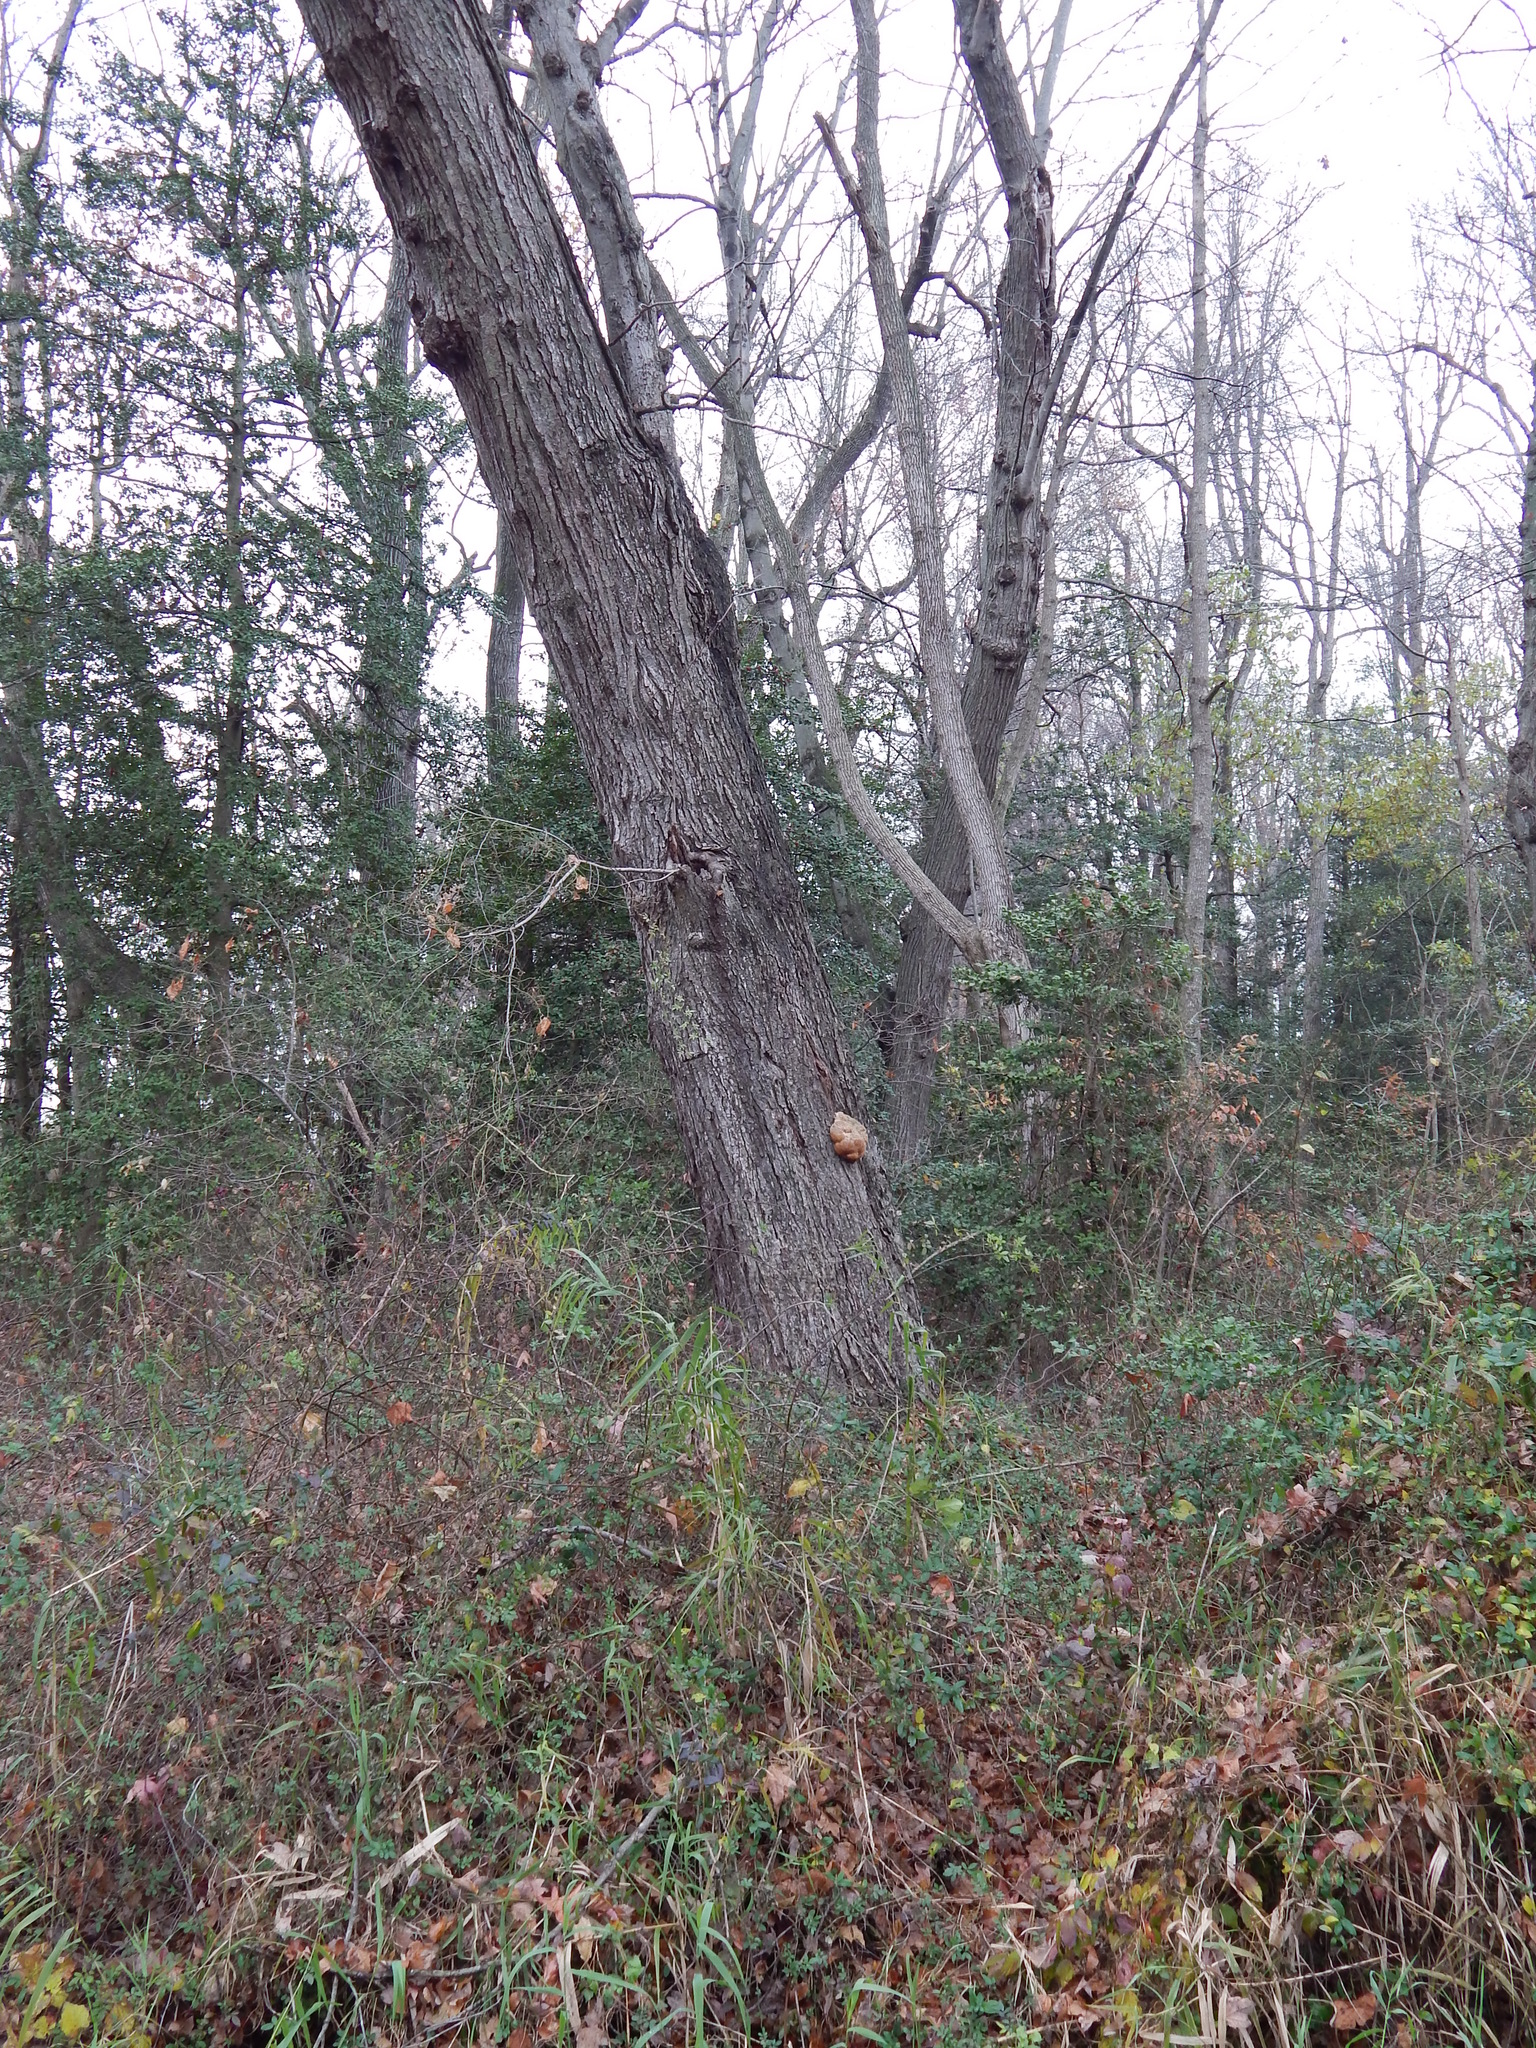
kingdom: Fungi
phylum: Basidiomycota
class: Agaricomycetes
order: Russulales
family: Hericiaceae
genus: Hericium
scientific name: Hericium erinaceus
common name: Bearded tooth
